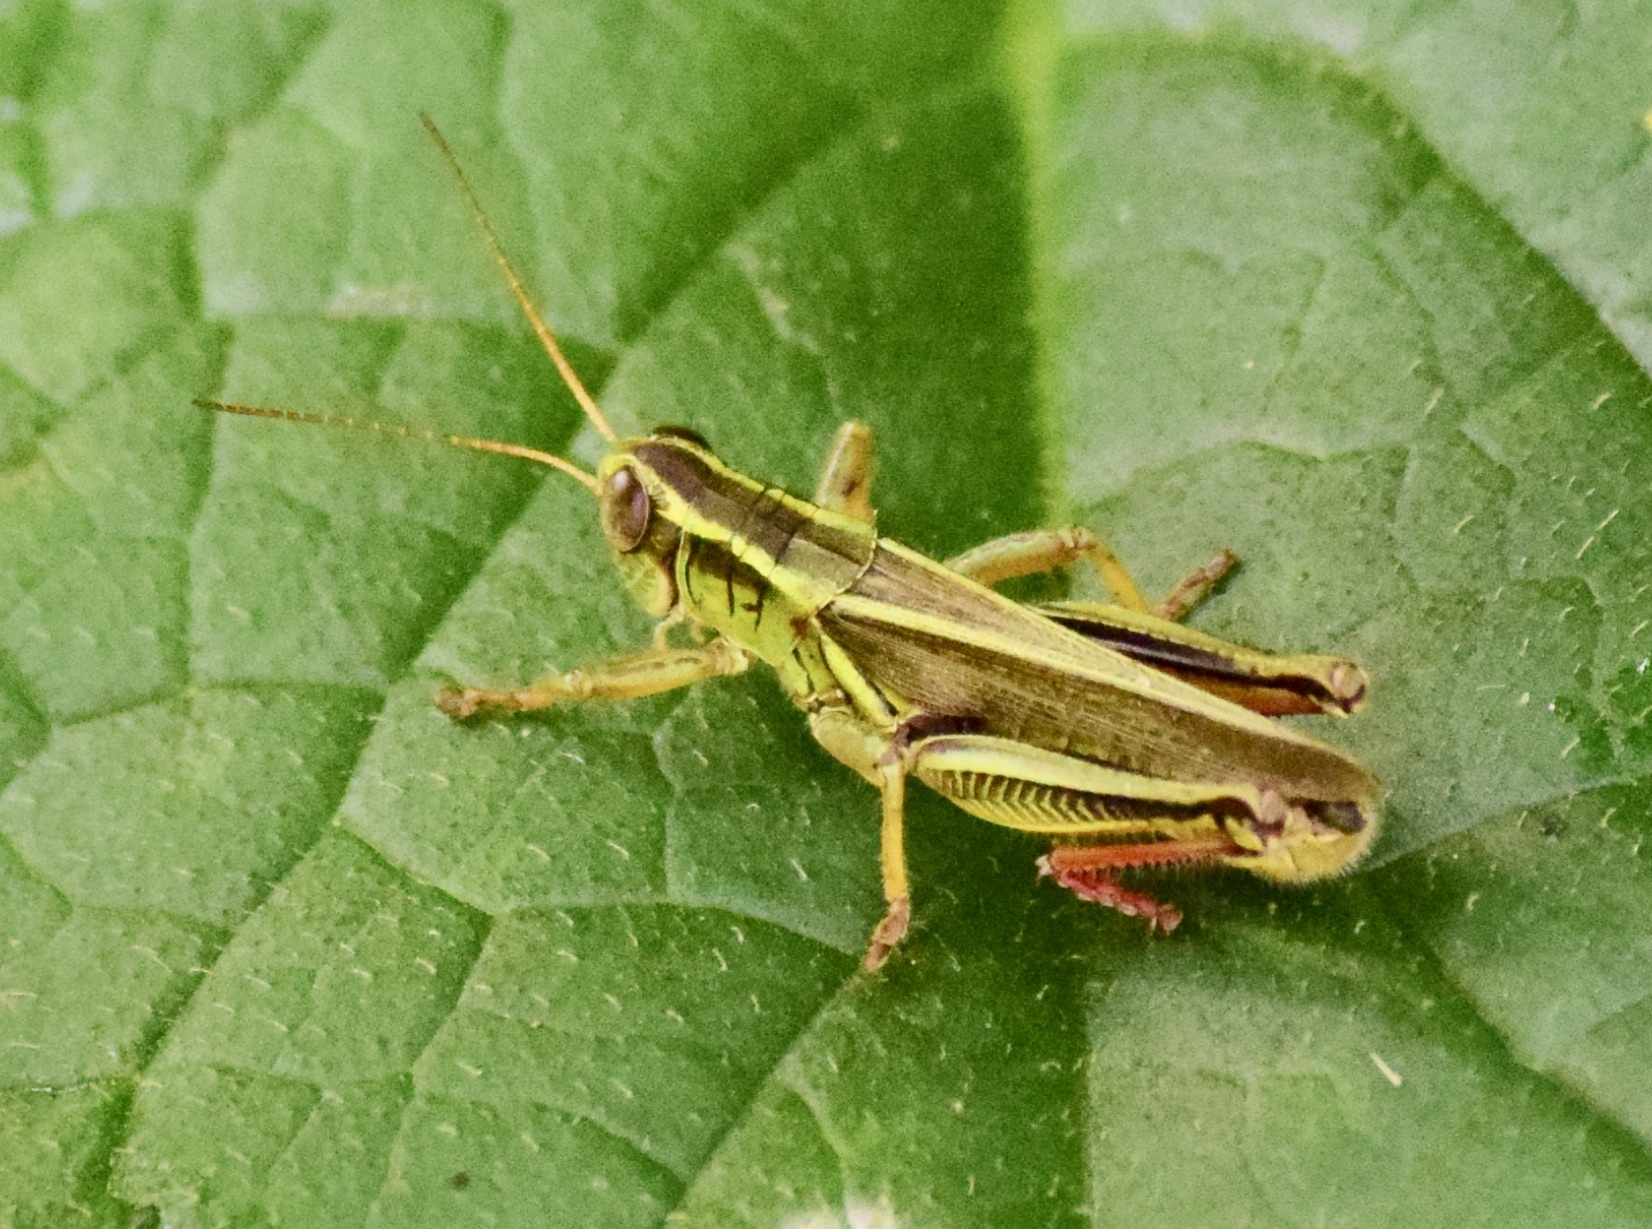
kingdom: Animalia
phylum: Arthropoda
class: Insecta
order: Orthoptera
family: Acrididae
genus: Melanoplus
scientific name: Melanoplus bivittatus
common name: Two-striped grasshopper
